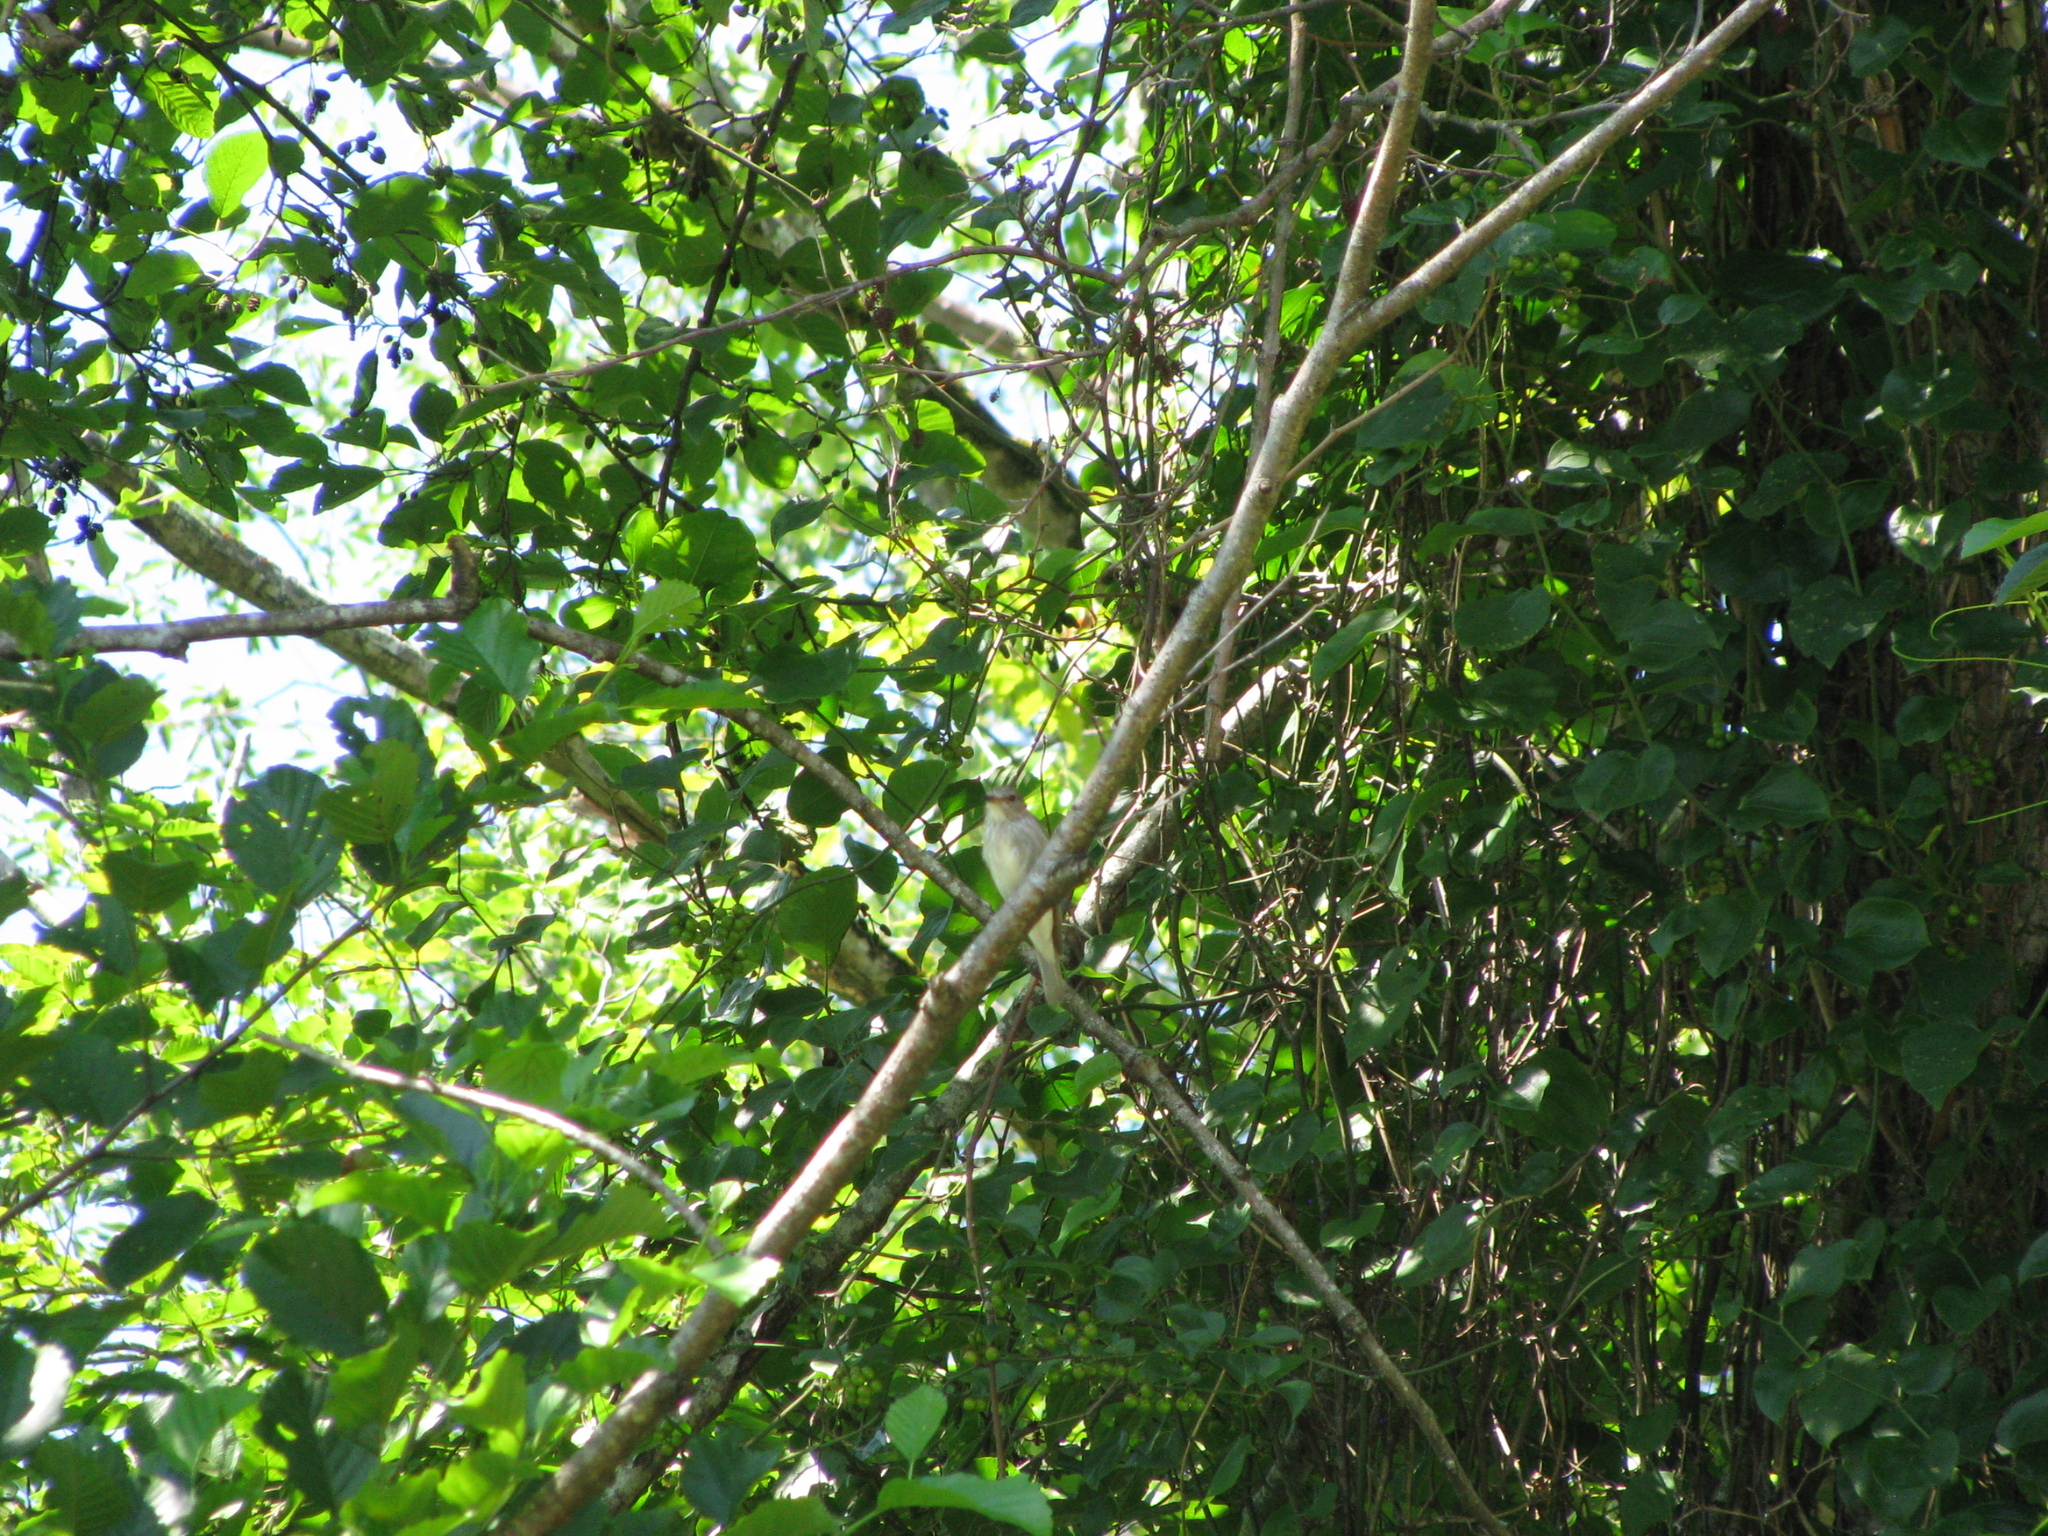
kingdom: Animalia
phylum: Chordata
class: Aves
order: Passeriformes
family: Muscicapidae
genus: Muscicapa
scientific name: Muscicapa striata
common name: Spotted flycatcher
